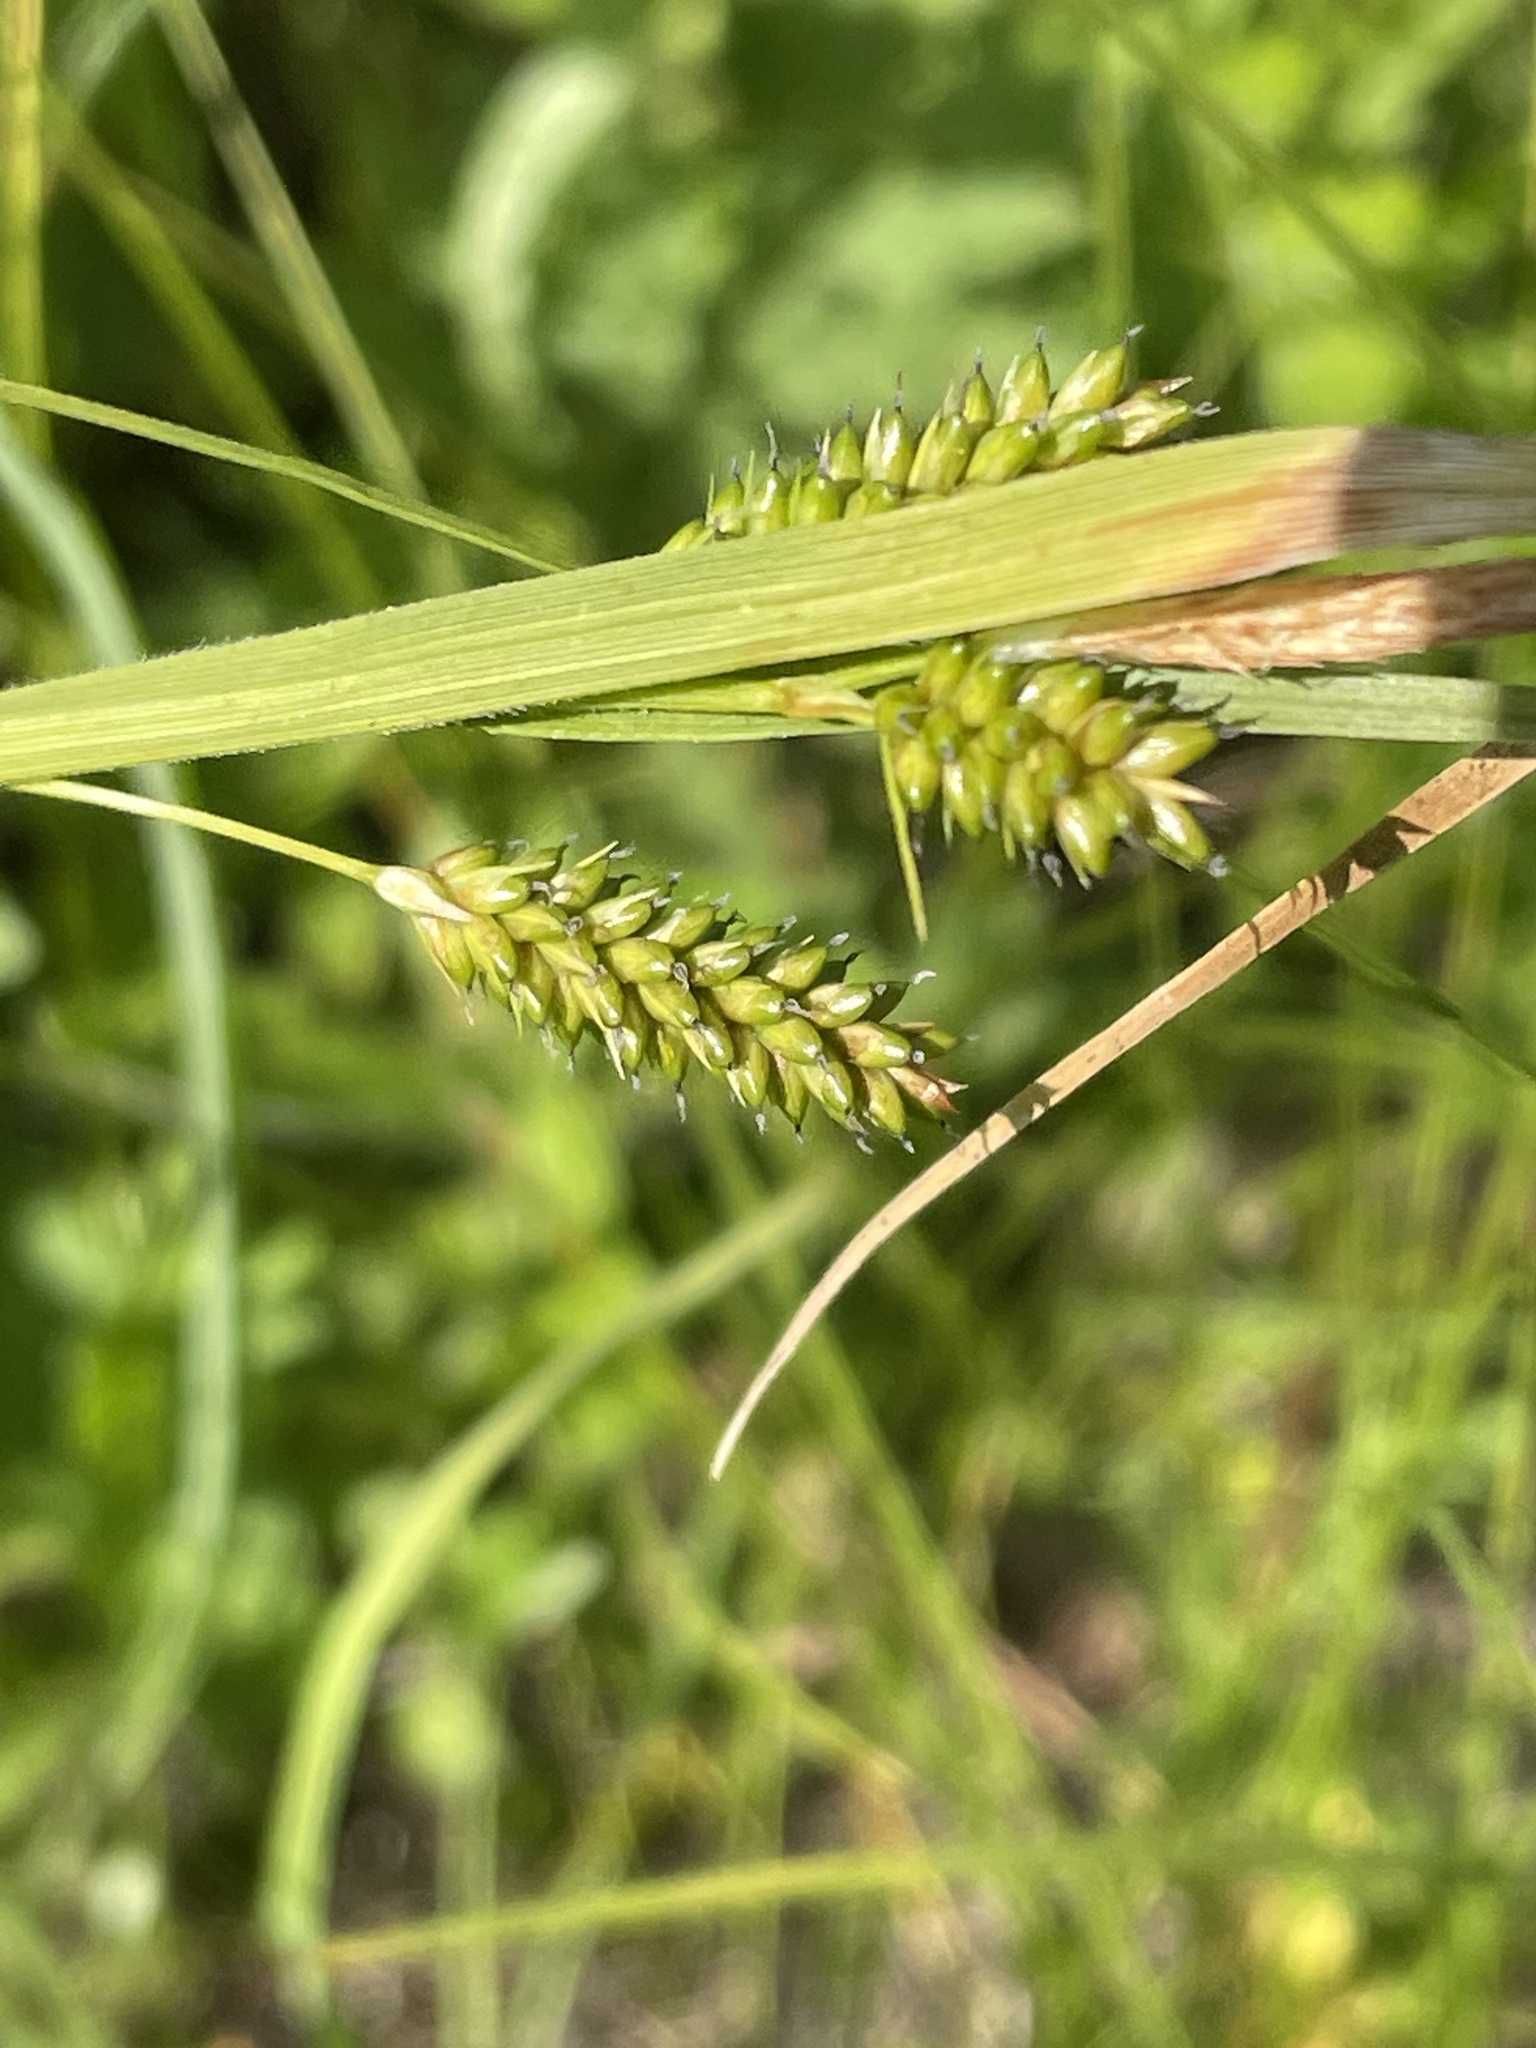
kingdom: Plantae
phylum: Tracheophyta
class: Liliopsida
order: Poales
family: Cyperaceae
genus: Carex
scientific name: Carex pallescens
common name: Pale sedge
